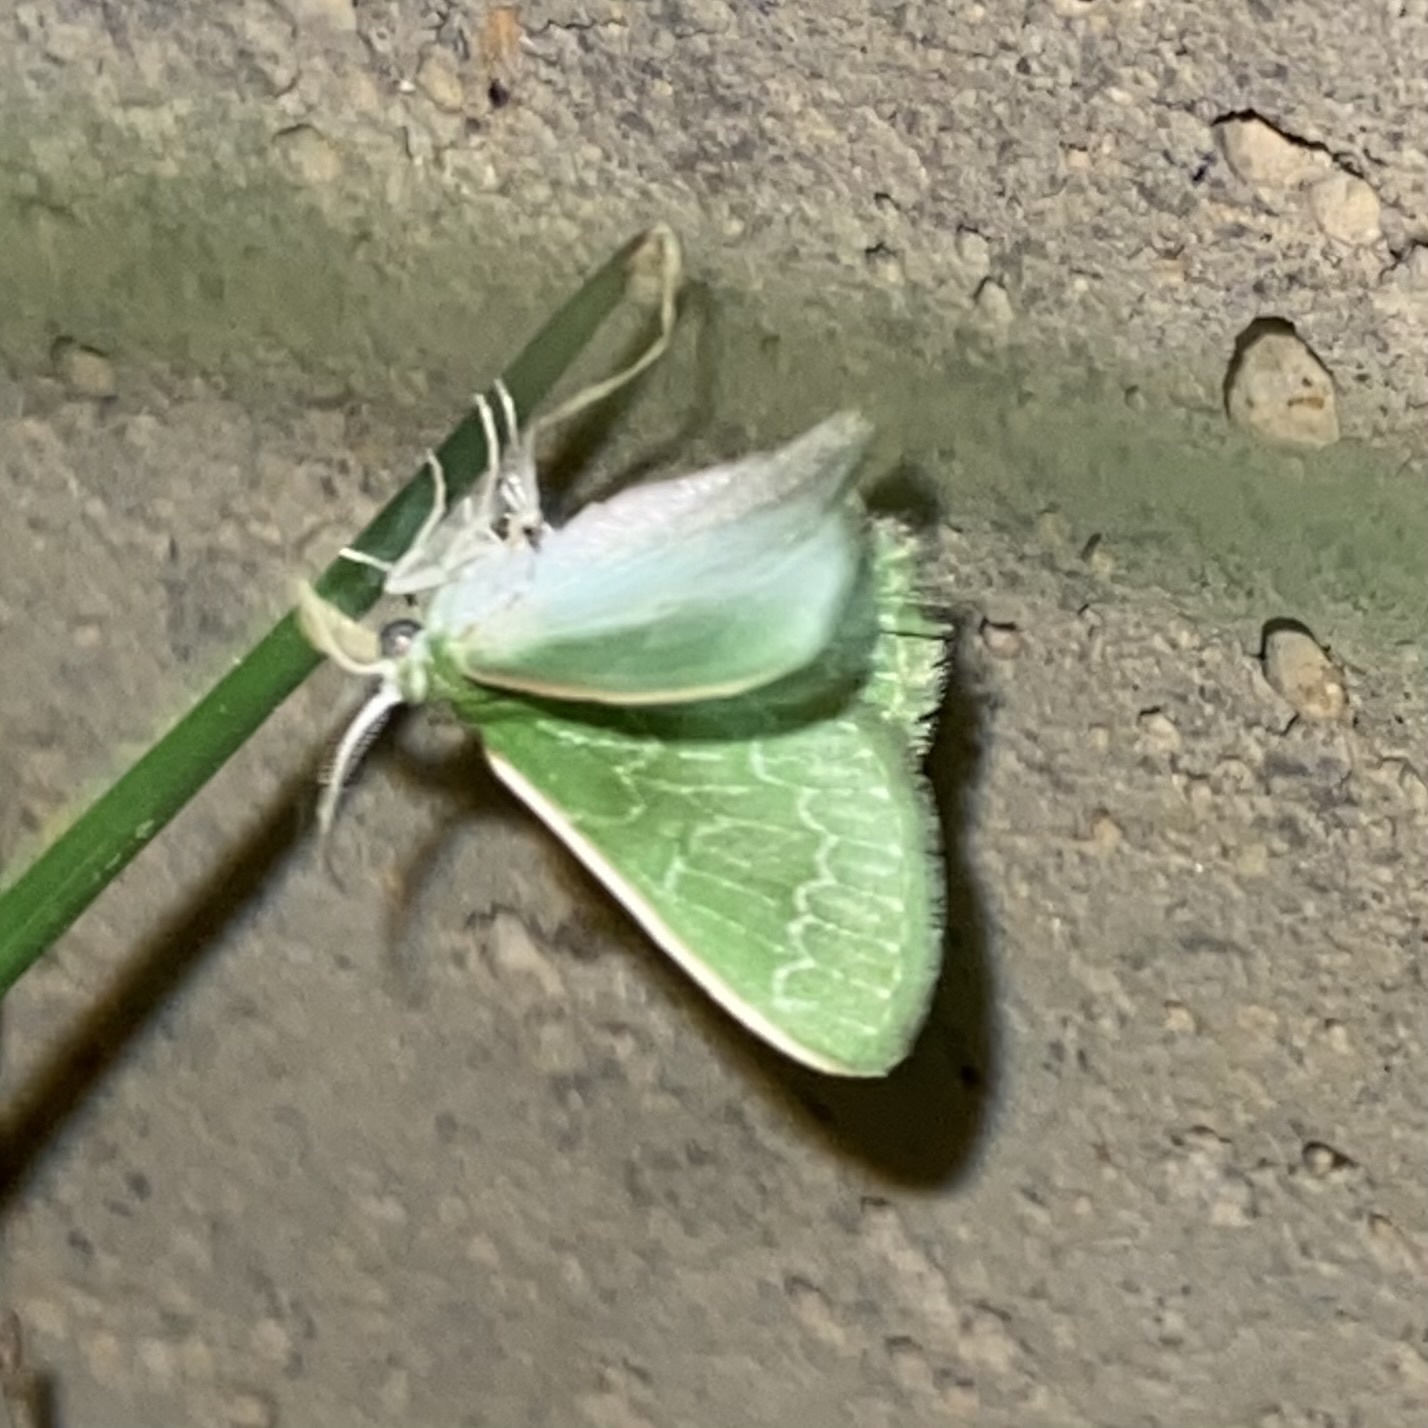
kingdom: Animalia
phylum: Arthropoda
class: Insecta
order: Lepidoptera
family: Geometridae
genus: Synchlora
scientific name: Synchlora frondaria
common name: Southern emerald
